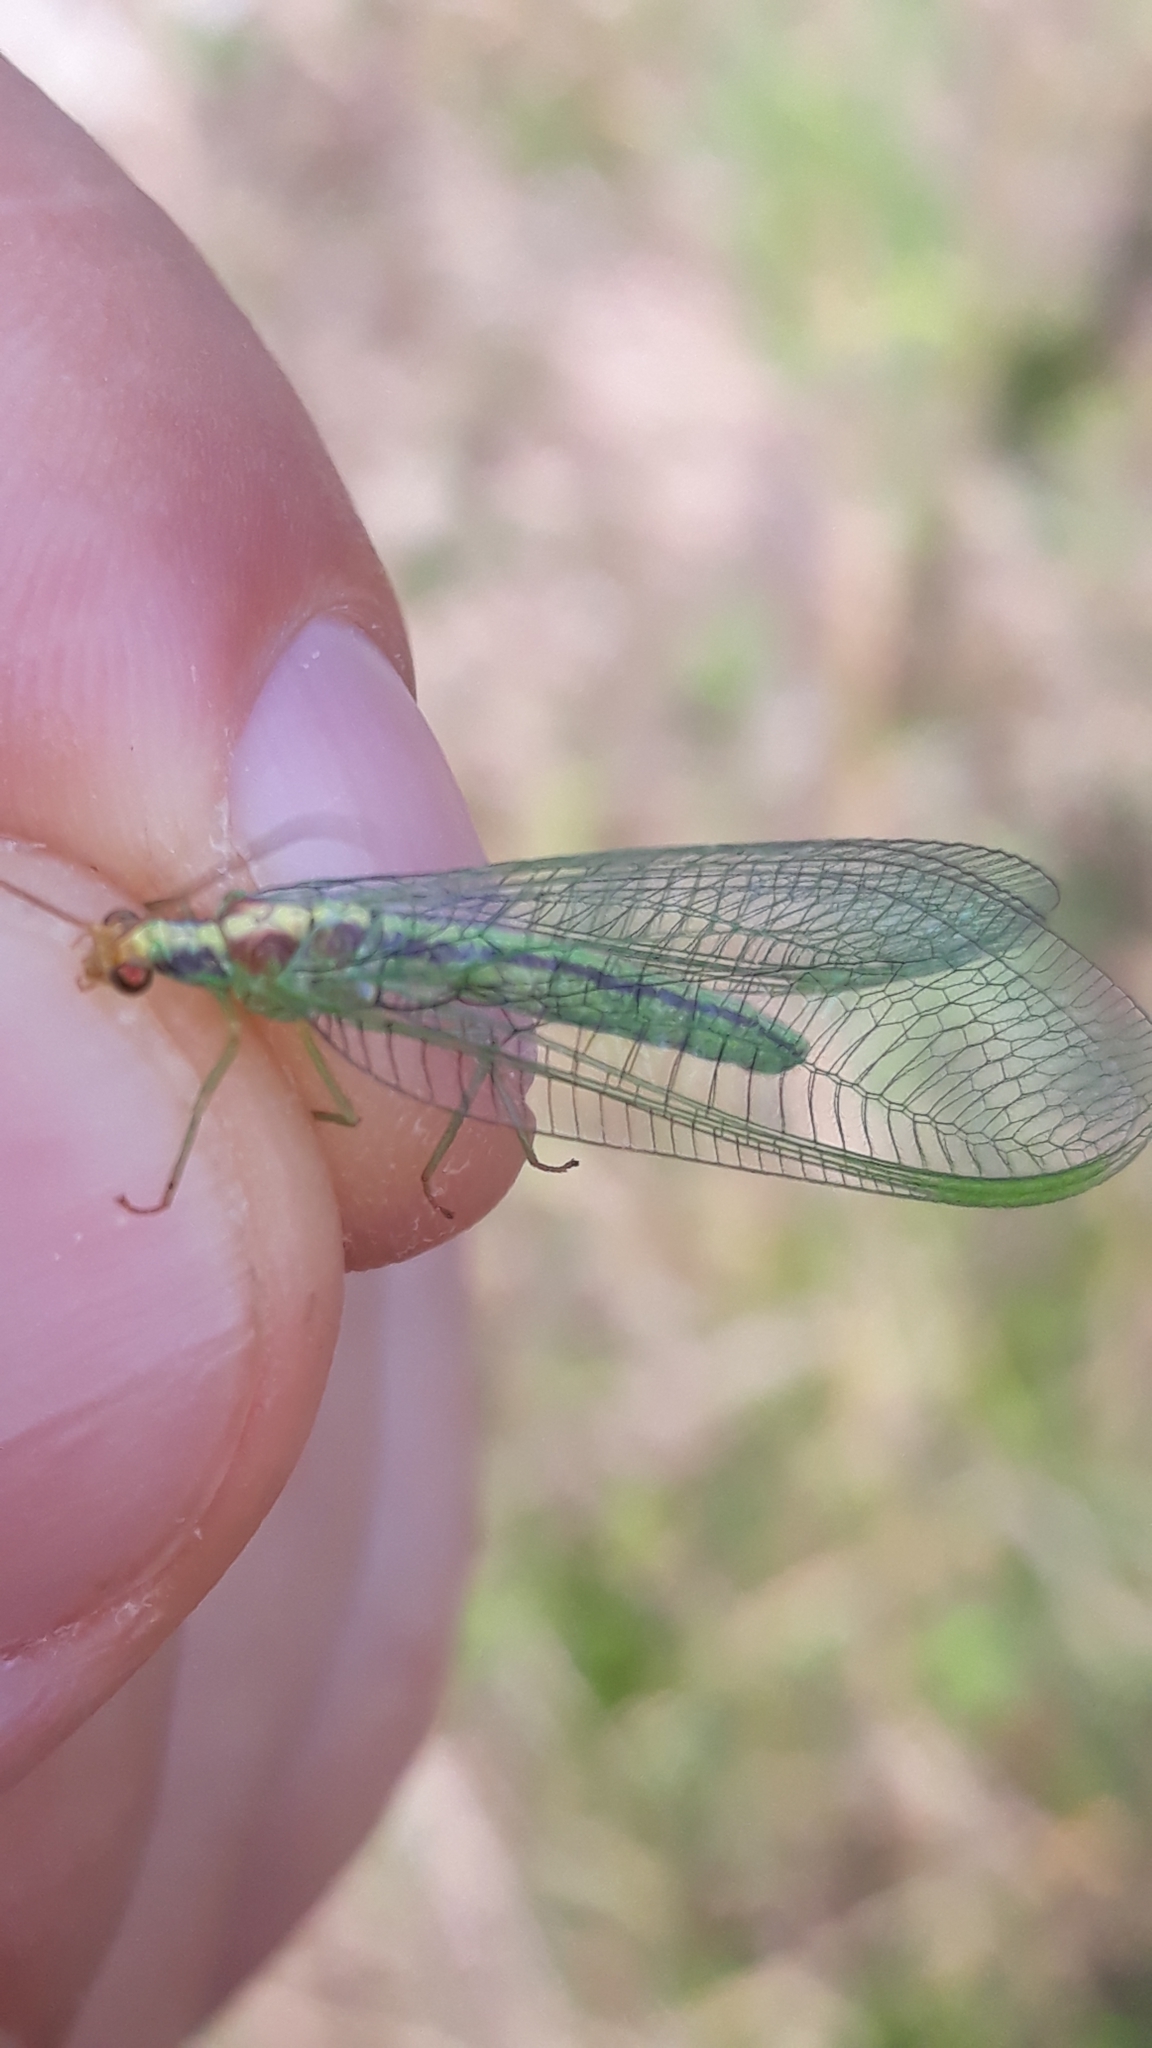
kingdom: Animalia
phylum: Arthropoda
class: Insecta
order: Neuroptera
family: Chrysopidae
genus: Nineta
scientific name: Nineta pallida
